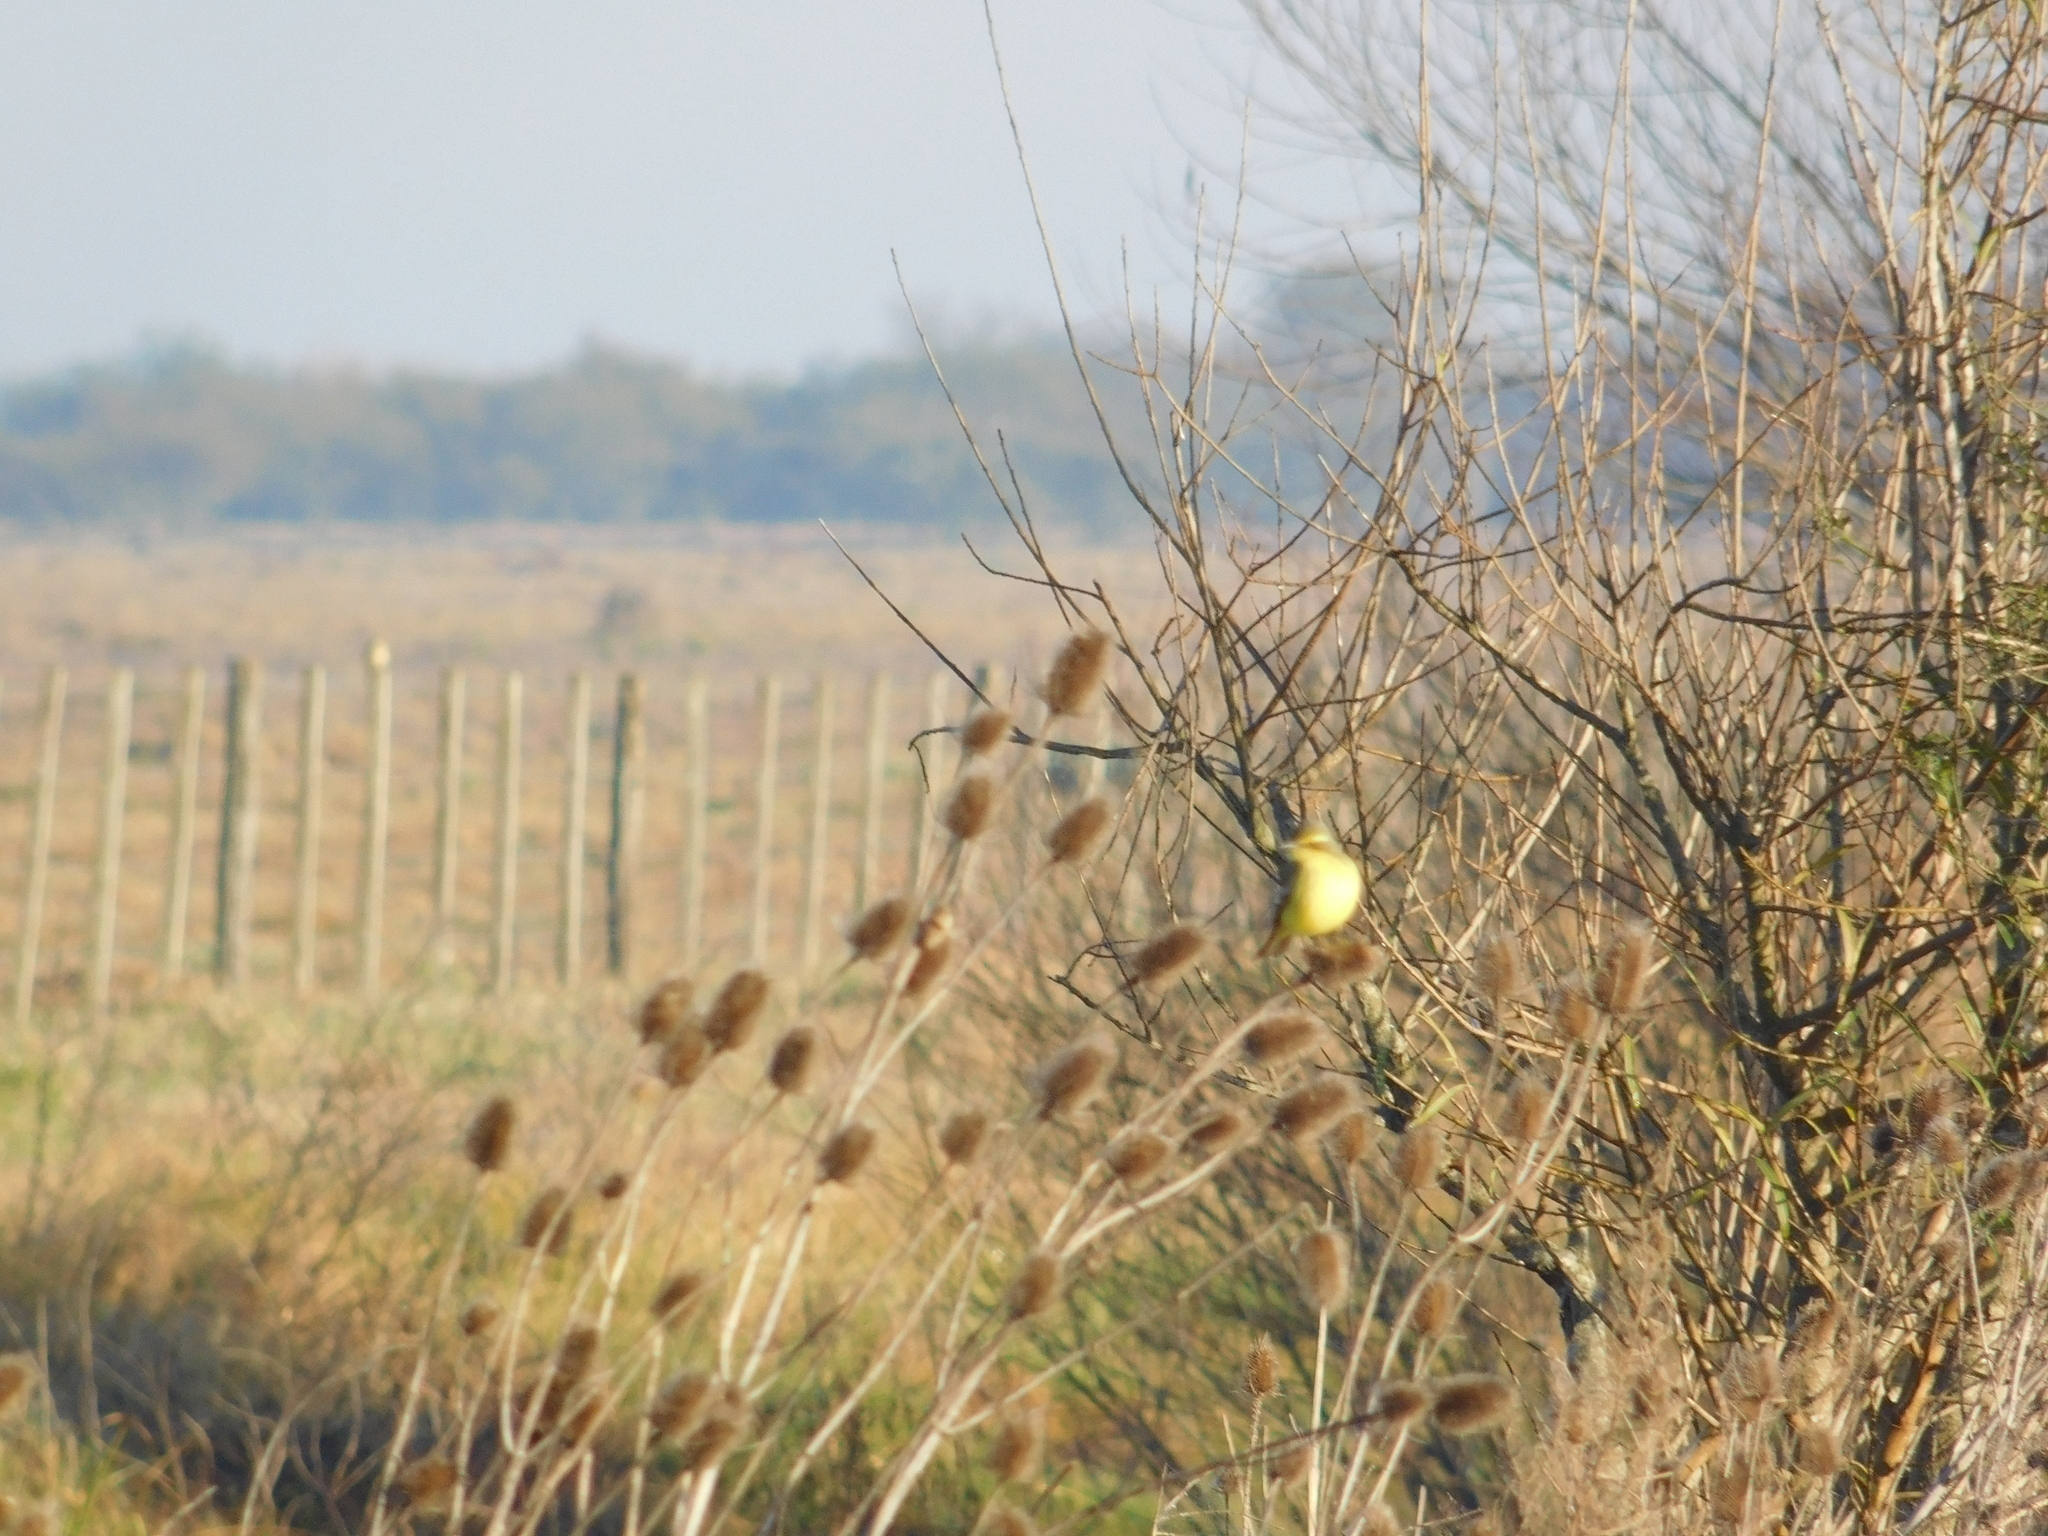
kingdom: Animalia
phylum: Chordata
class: Aves
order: Passeriformes
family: Tyrannidae
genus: Satrapa
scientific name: Satrapa icterophrys
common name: Yellow-browed tyrant
